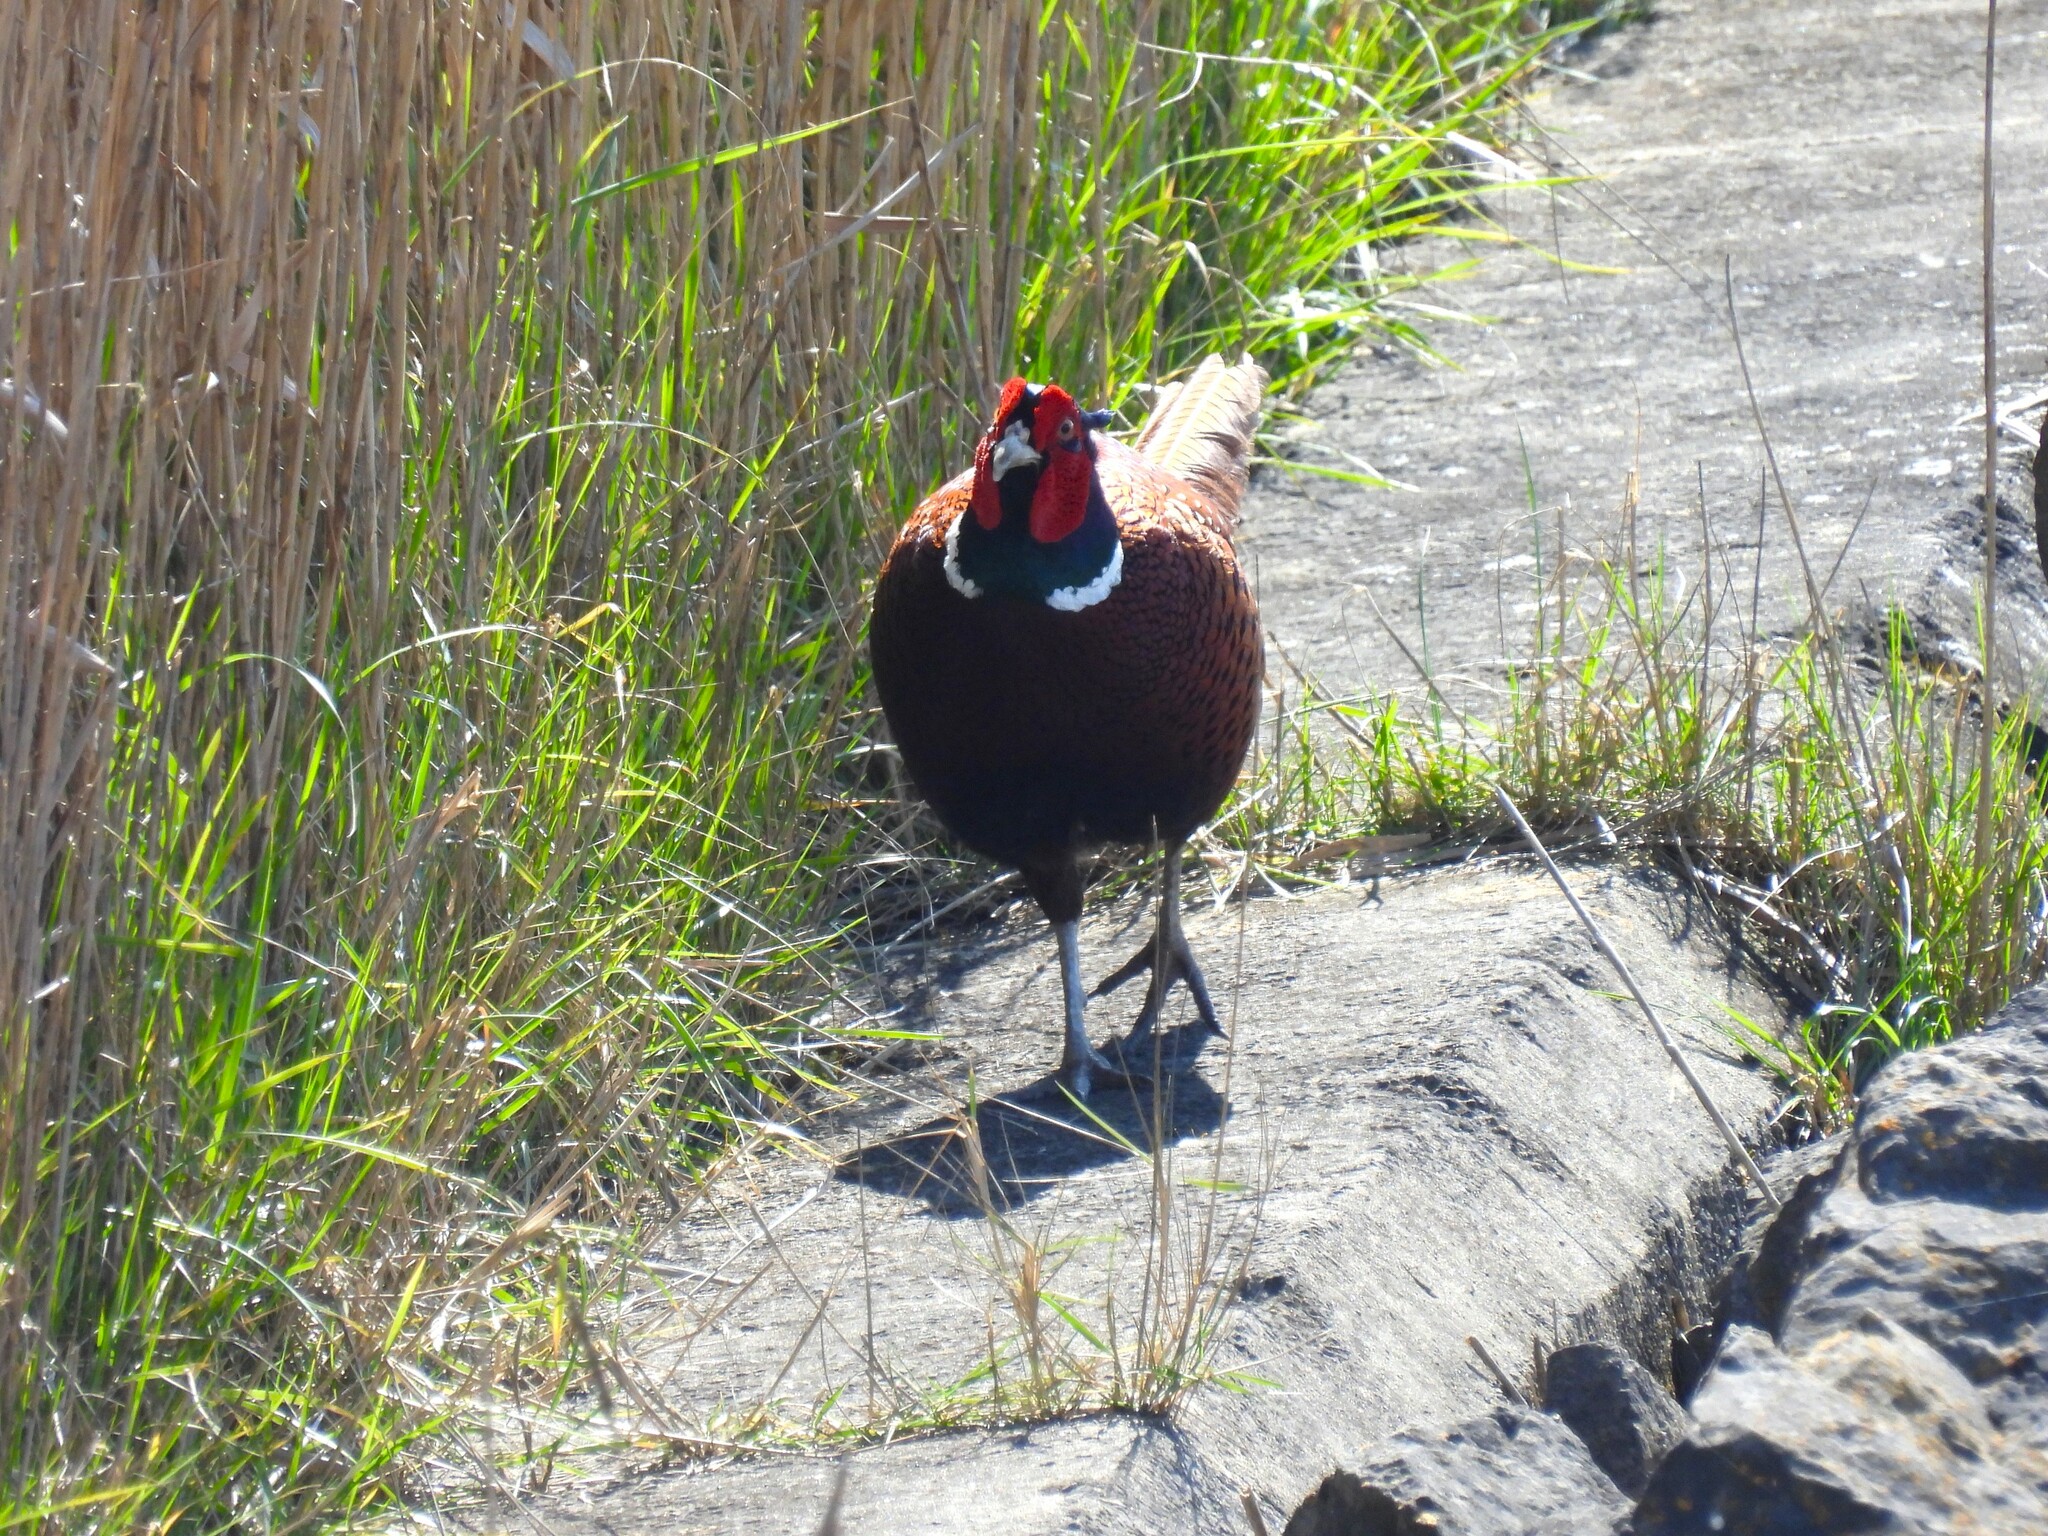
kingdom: Animalia
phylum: Chordata
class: Aves
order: Galliformes
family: Phasianidae
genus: Phasianus
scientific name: Phasianus colchicus
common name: Common pheasant
